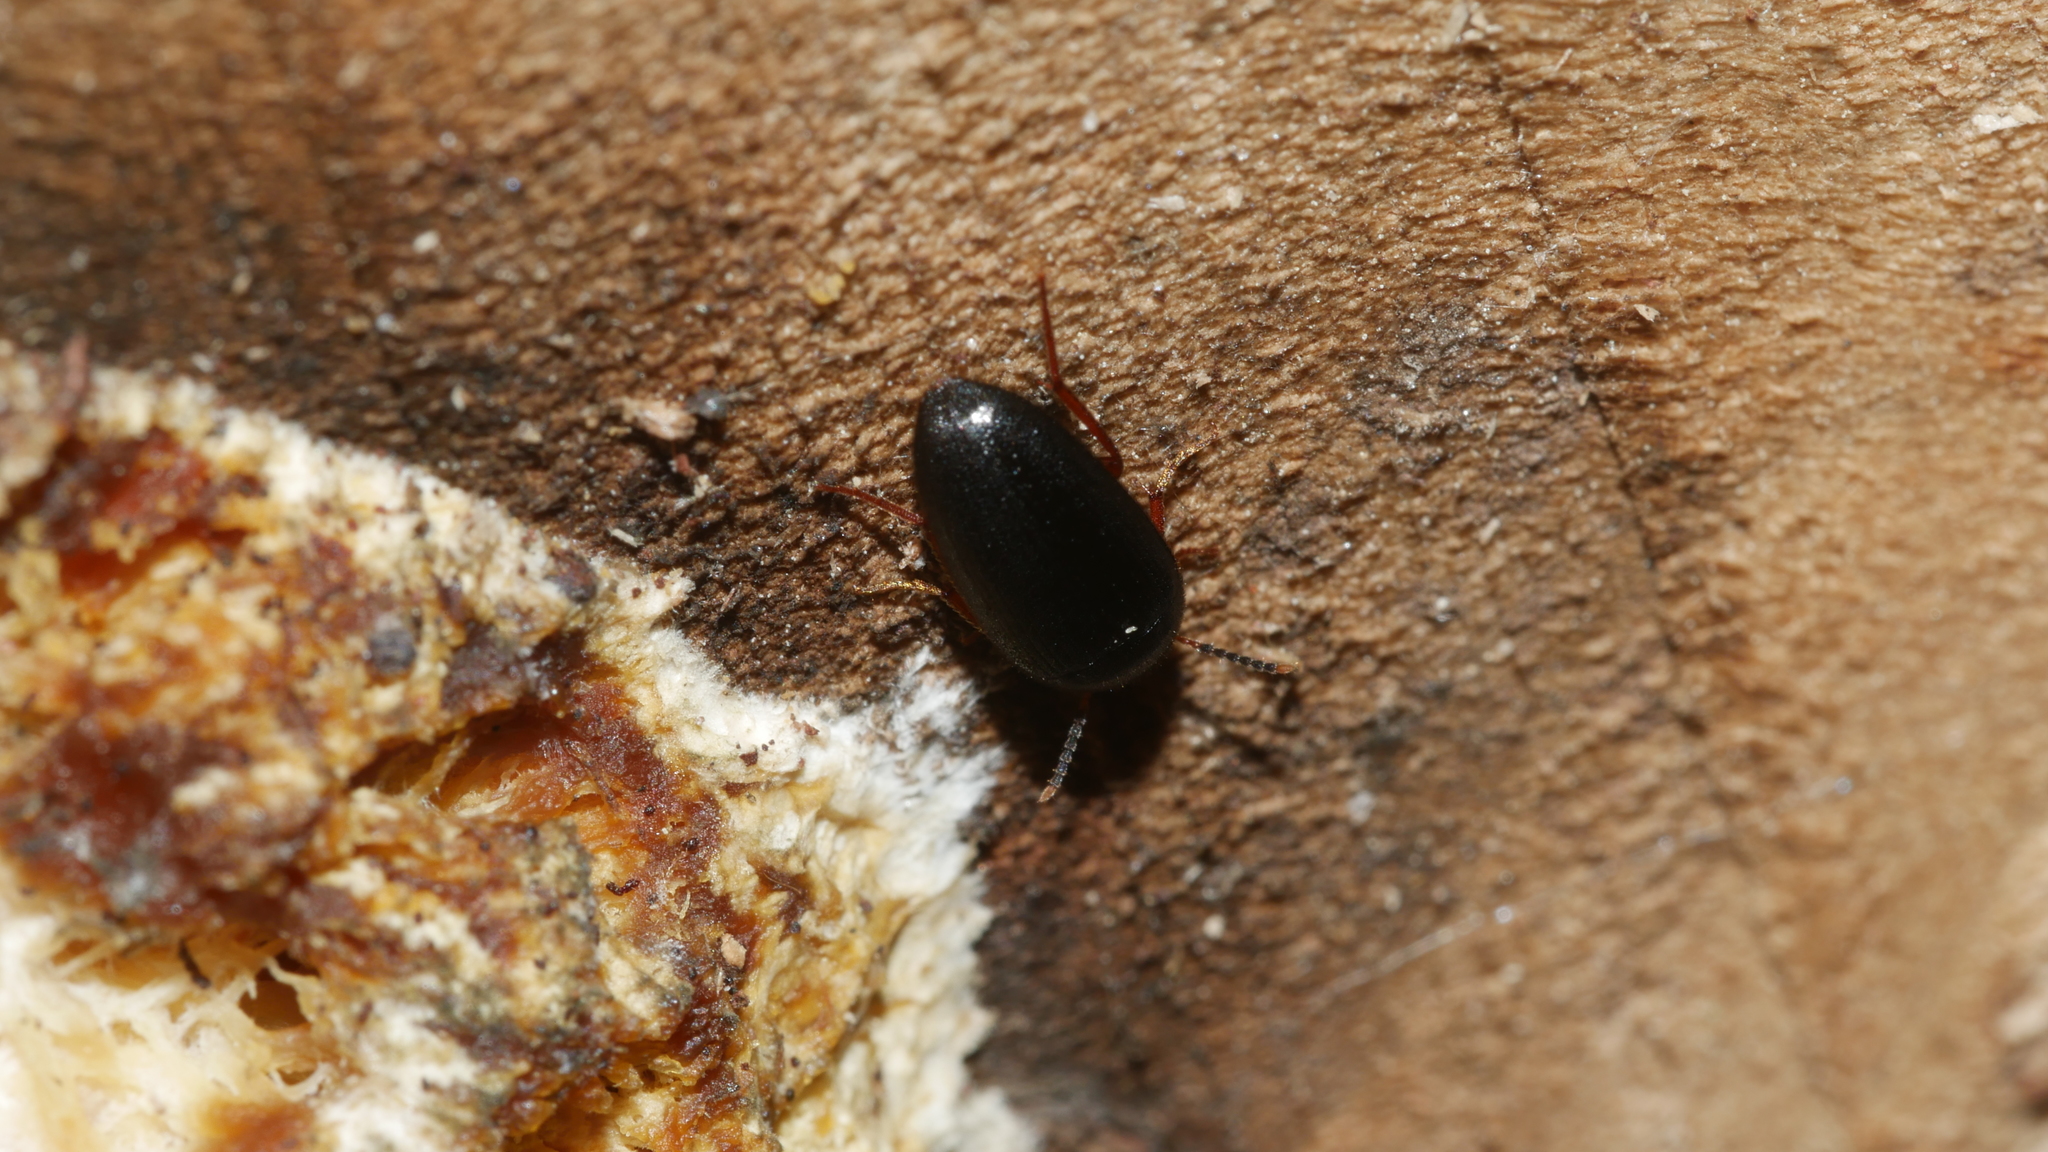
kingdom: Animalia
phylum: Arthropoda
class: Insecta
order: Coleoptera
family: Tetratomidae
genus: Eustrophopsis
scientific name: Eustrophopsis bicolor
